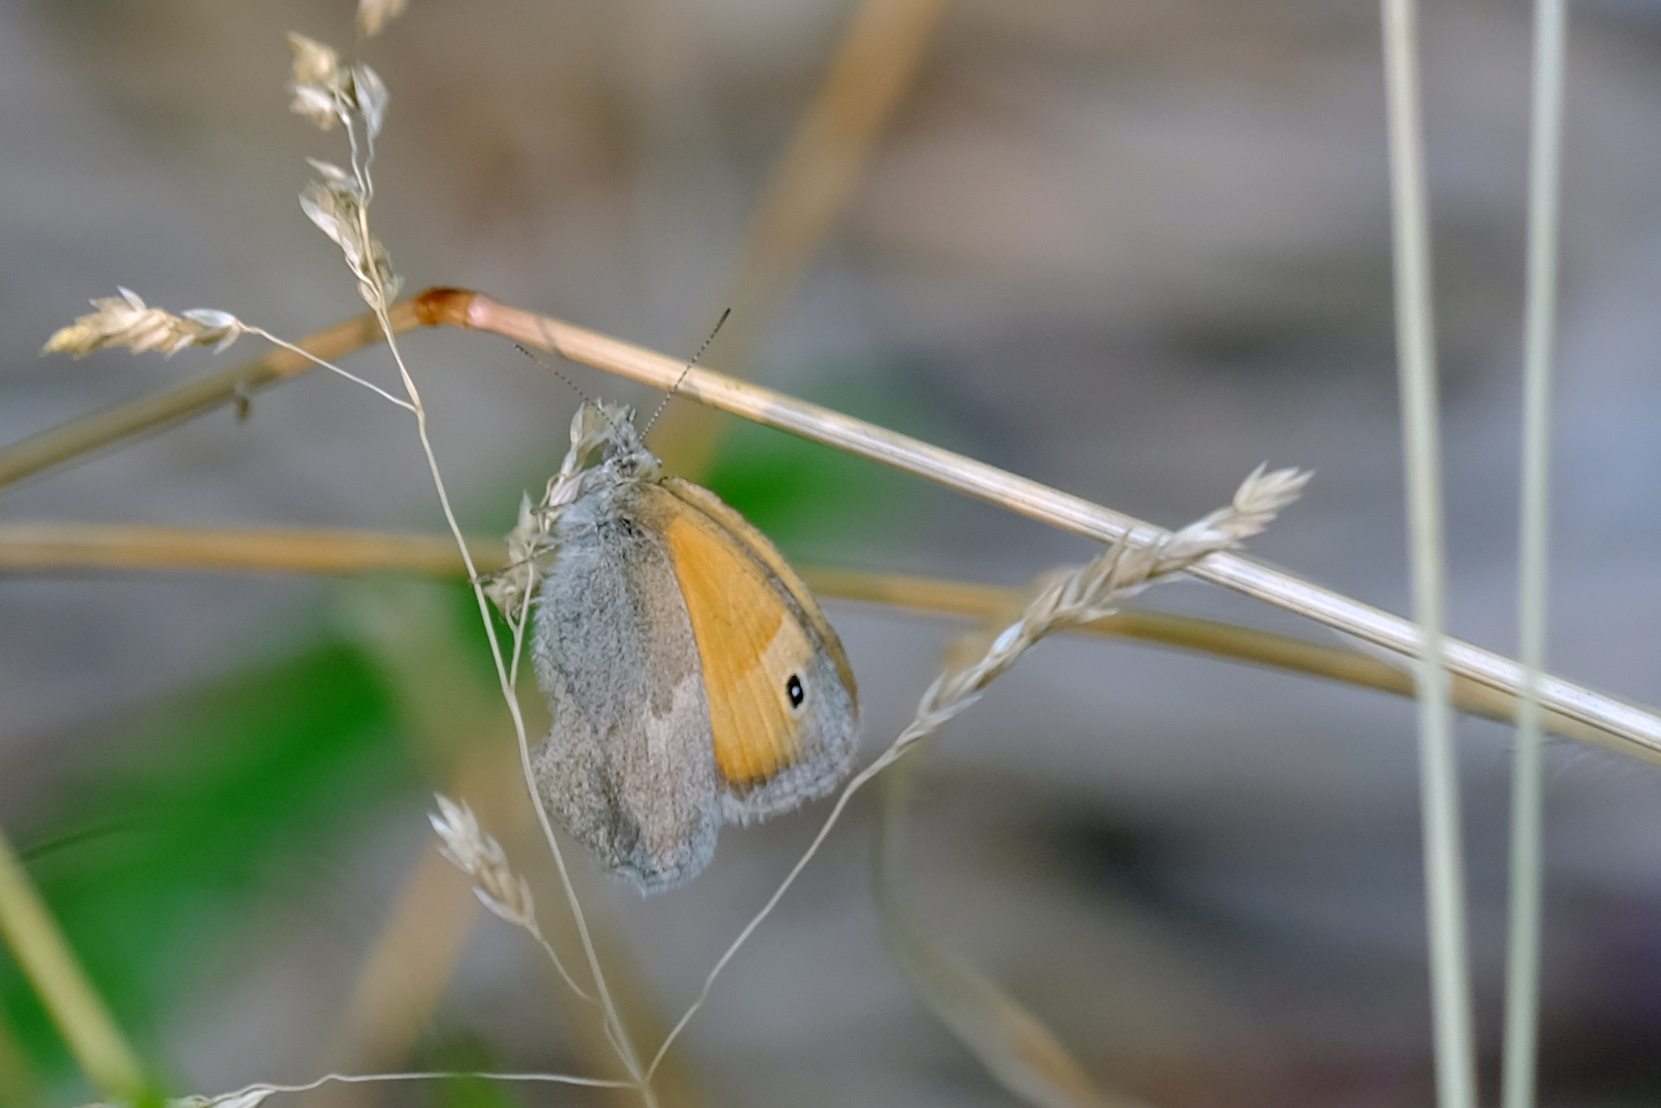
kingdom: Animalia
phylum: Arthropoda
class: Insecta
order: Lepidoptera
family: Nymphalidae
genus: Coenonympha
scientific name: Coenonympha pamphilus
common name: Small heath
